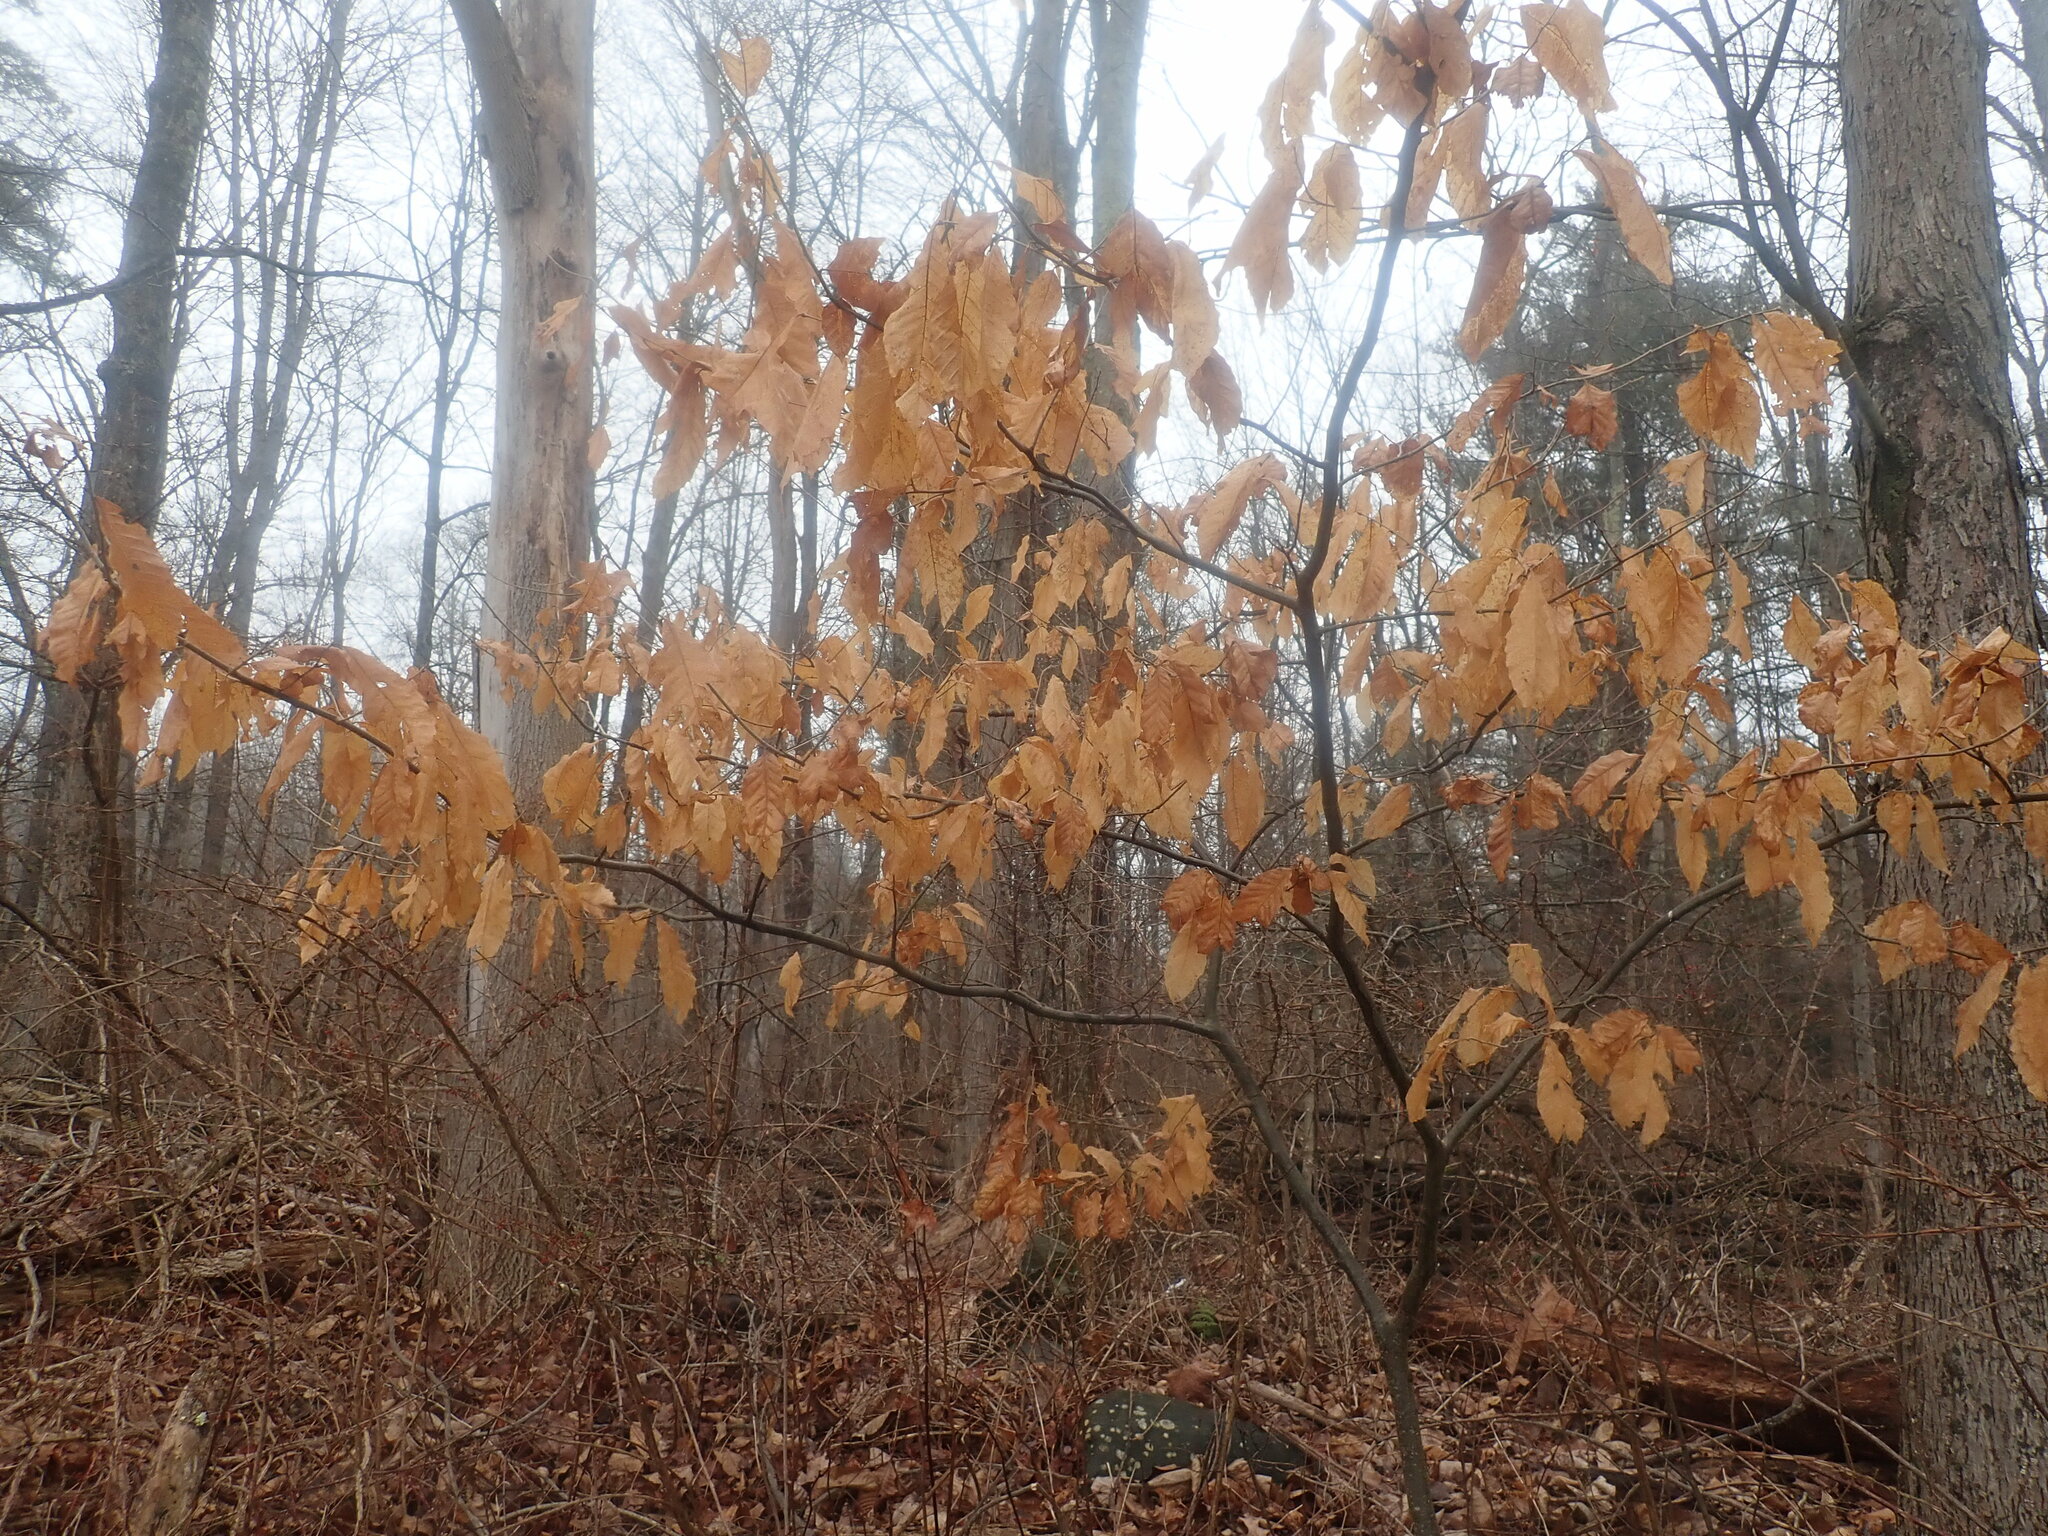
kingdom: Plantae
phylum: Tracheophyta
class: Magnoliopsida
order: Fagales
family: Fagaceae
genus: Castanea
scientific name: Castanea dentata
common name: American chestnut
